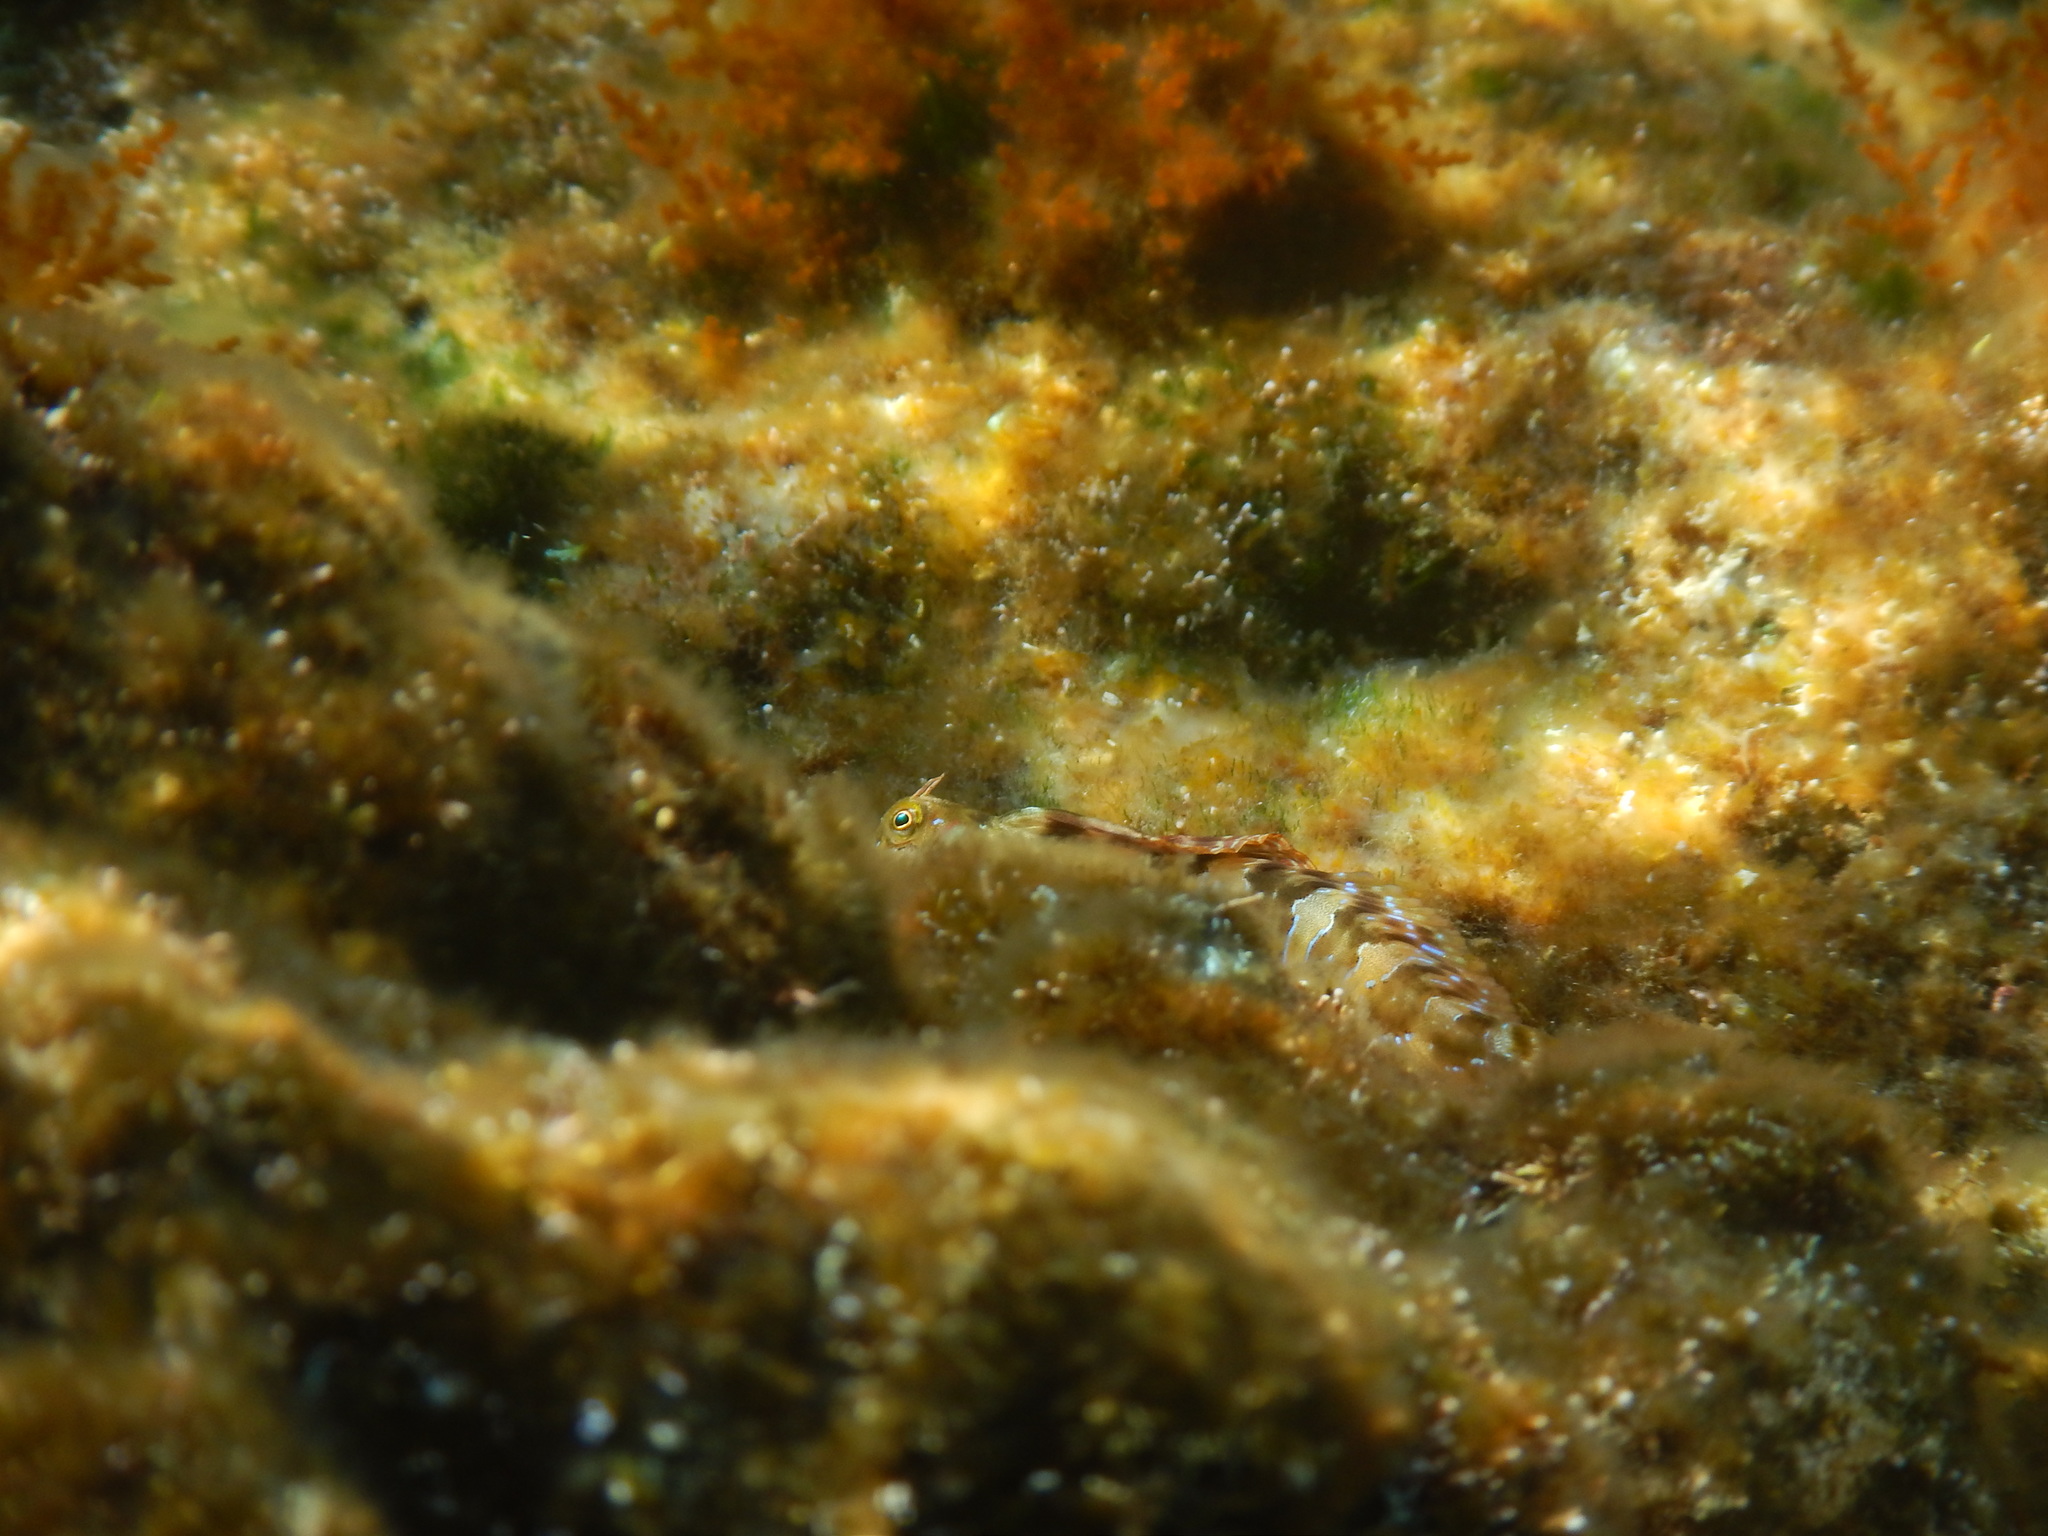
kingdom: Animalia
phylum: Chordata
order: Perciformes
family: Blenniidae
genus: Aidablennius
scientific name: Aidablennius sphynx
